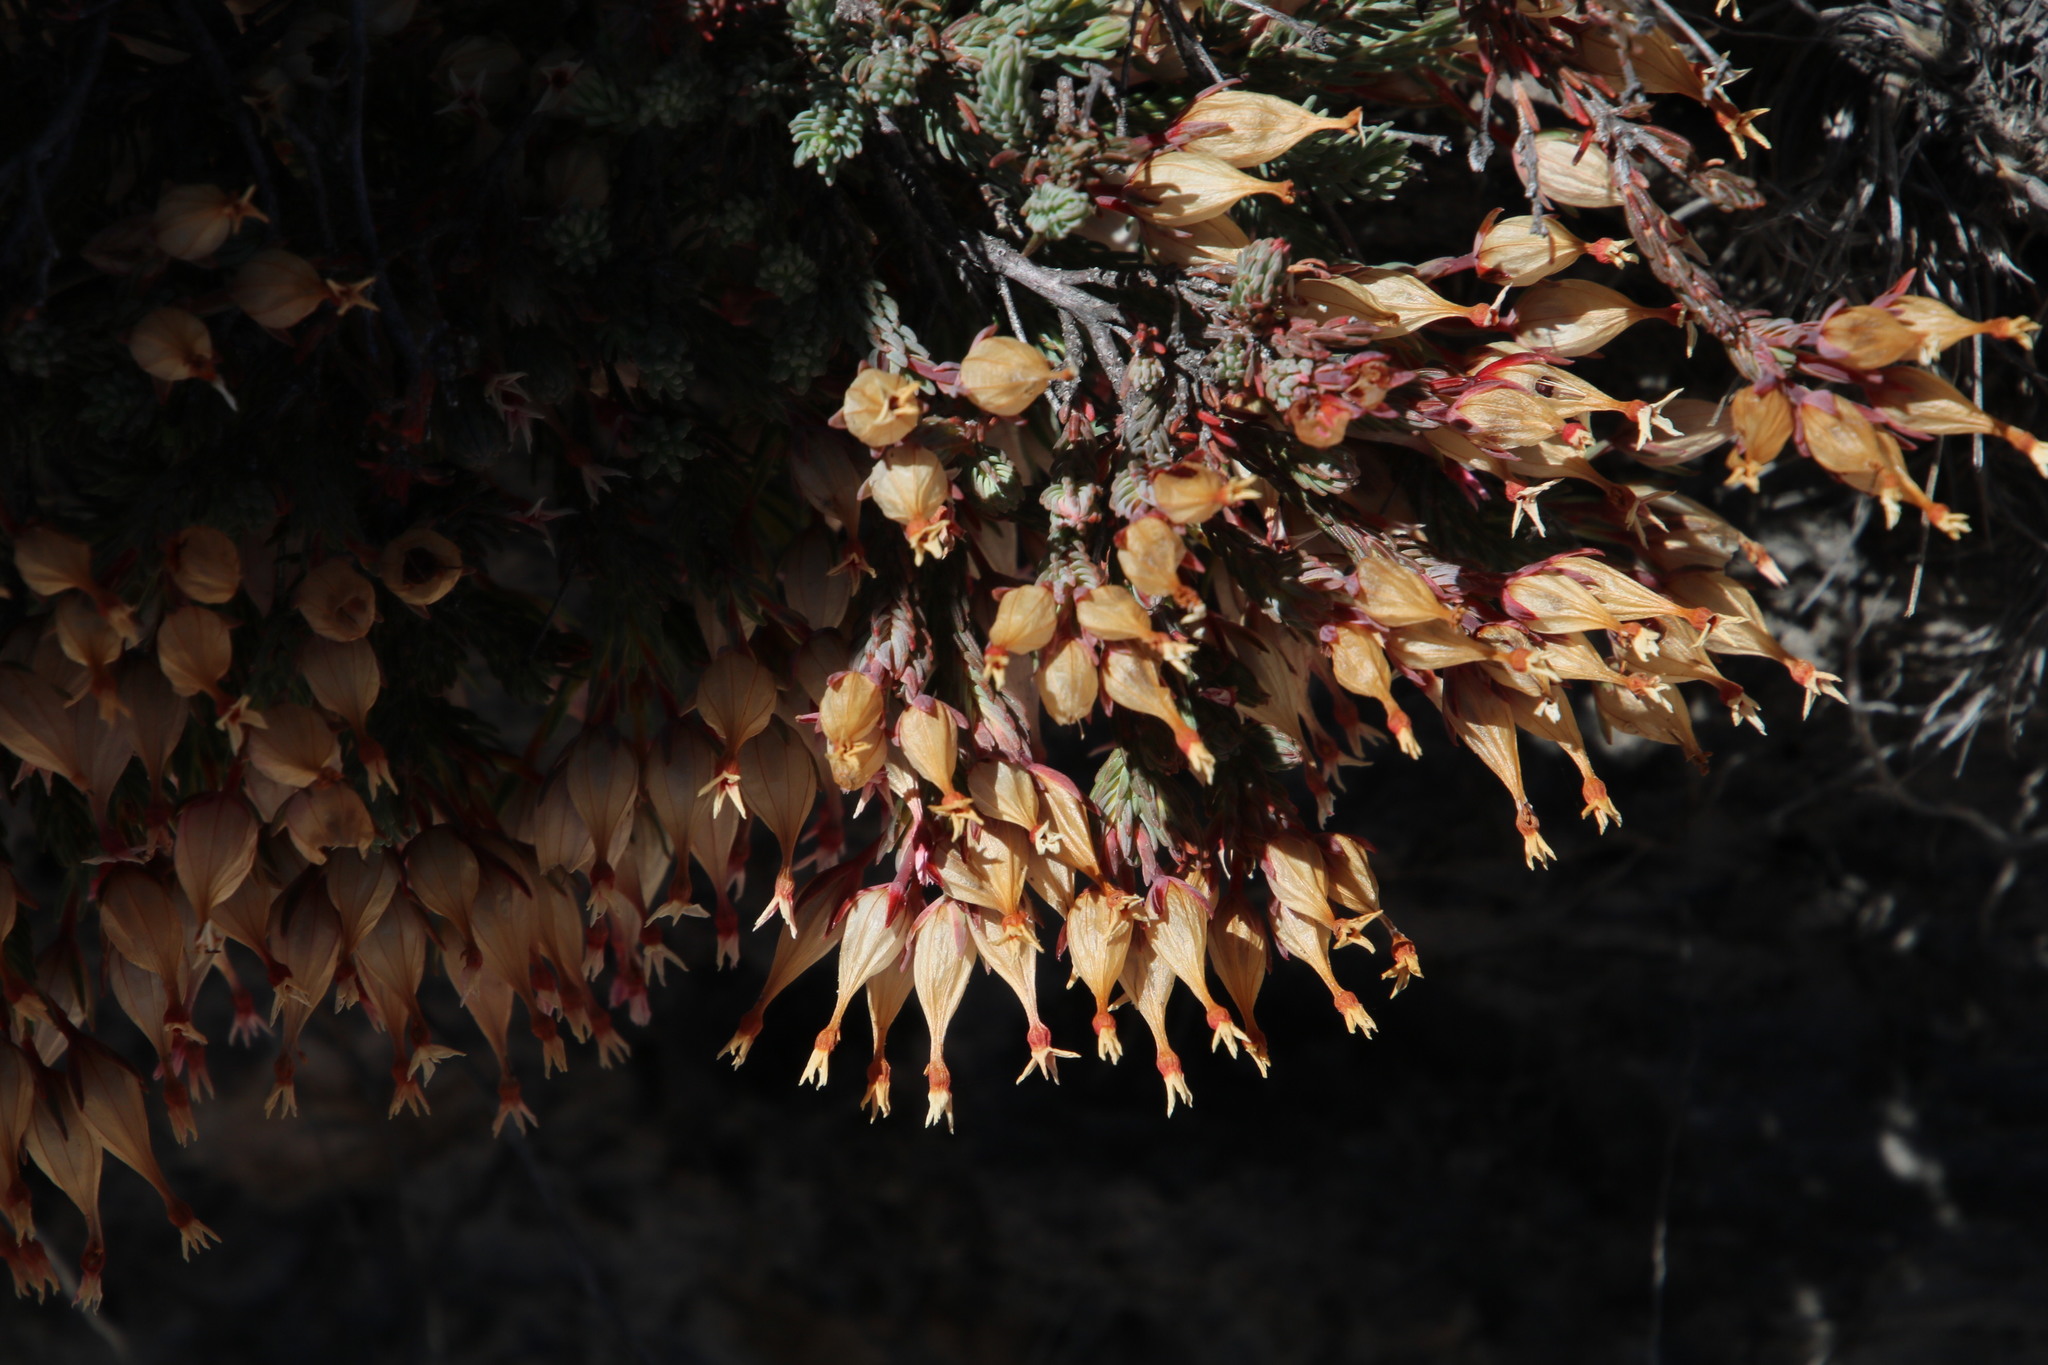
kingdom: Plantae
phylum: Tracheophyta
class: Magnoliopsida
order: Ericales
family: Ericaceae
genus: Erica
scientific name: Erica junonia
